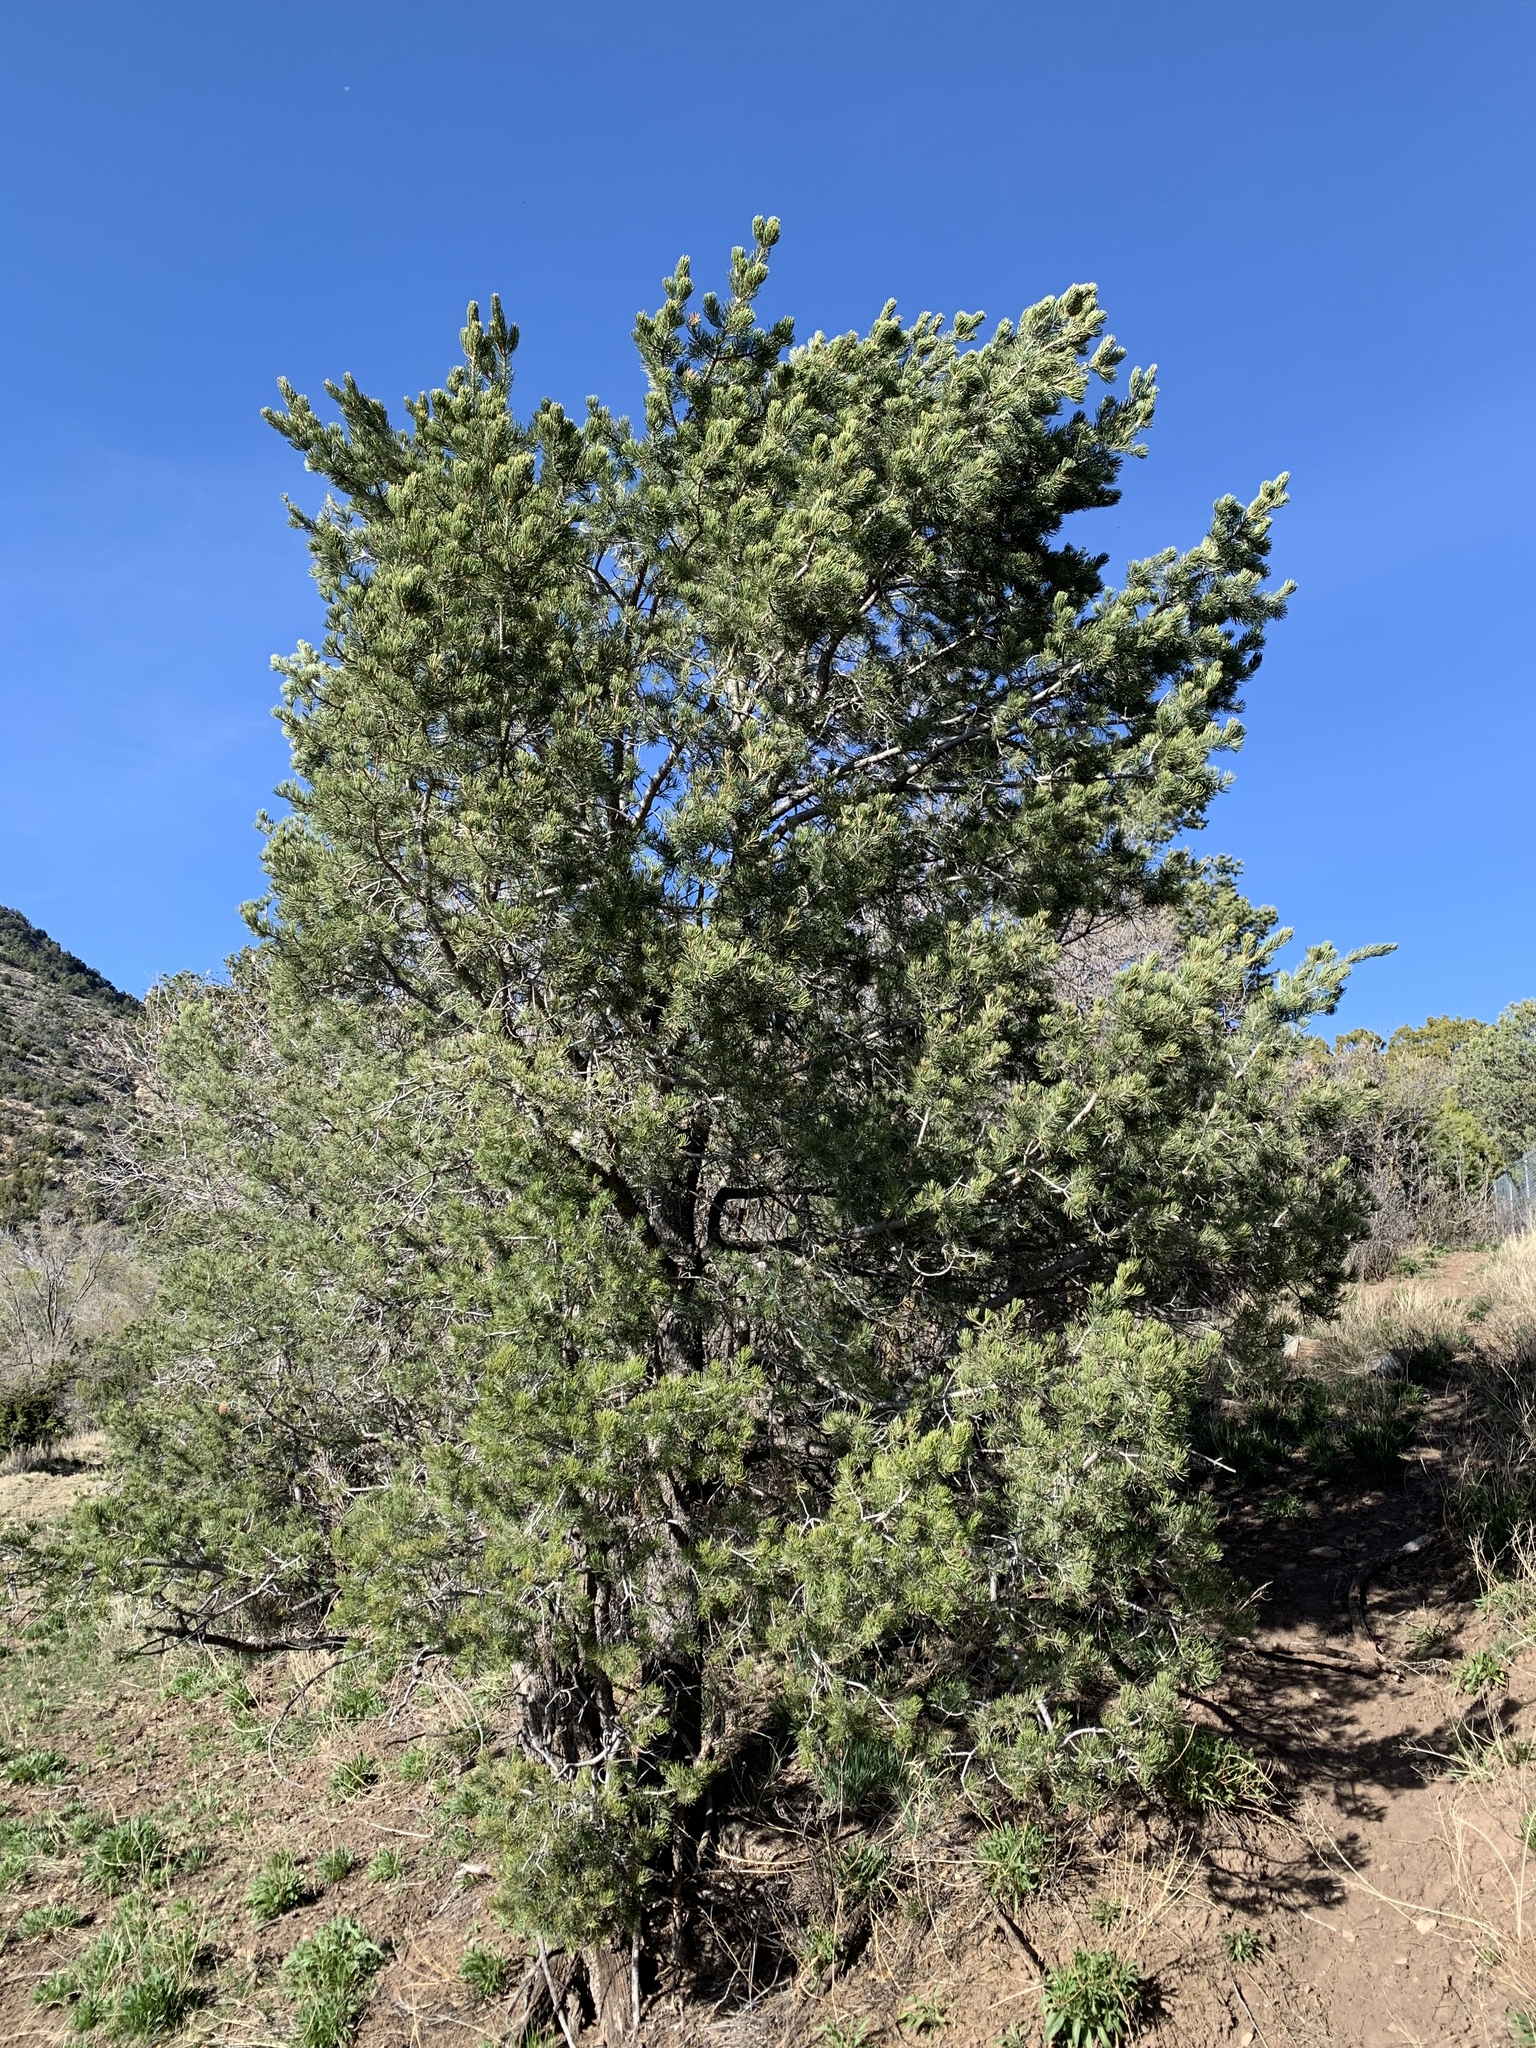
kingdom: Plantae
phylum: Tracheophyta
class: Pinopsida
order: Pinales
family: Pinaceae
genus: Pinus
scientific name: Pinus edulis
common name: Colorado pinyon
